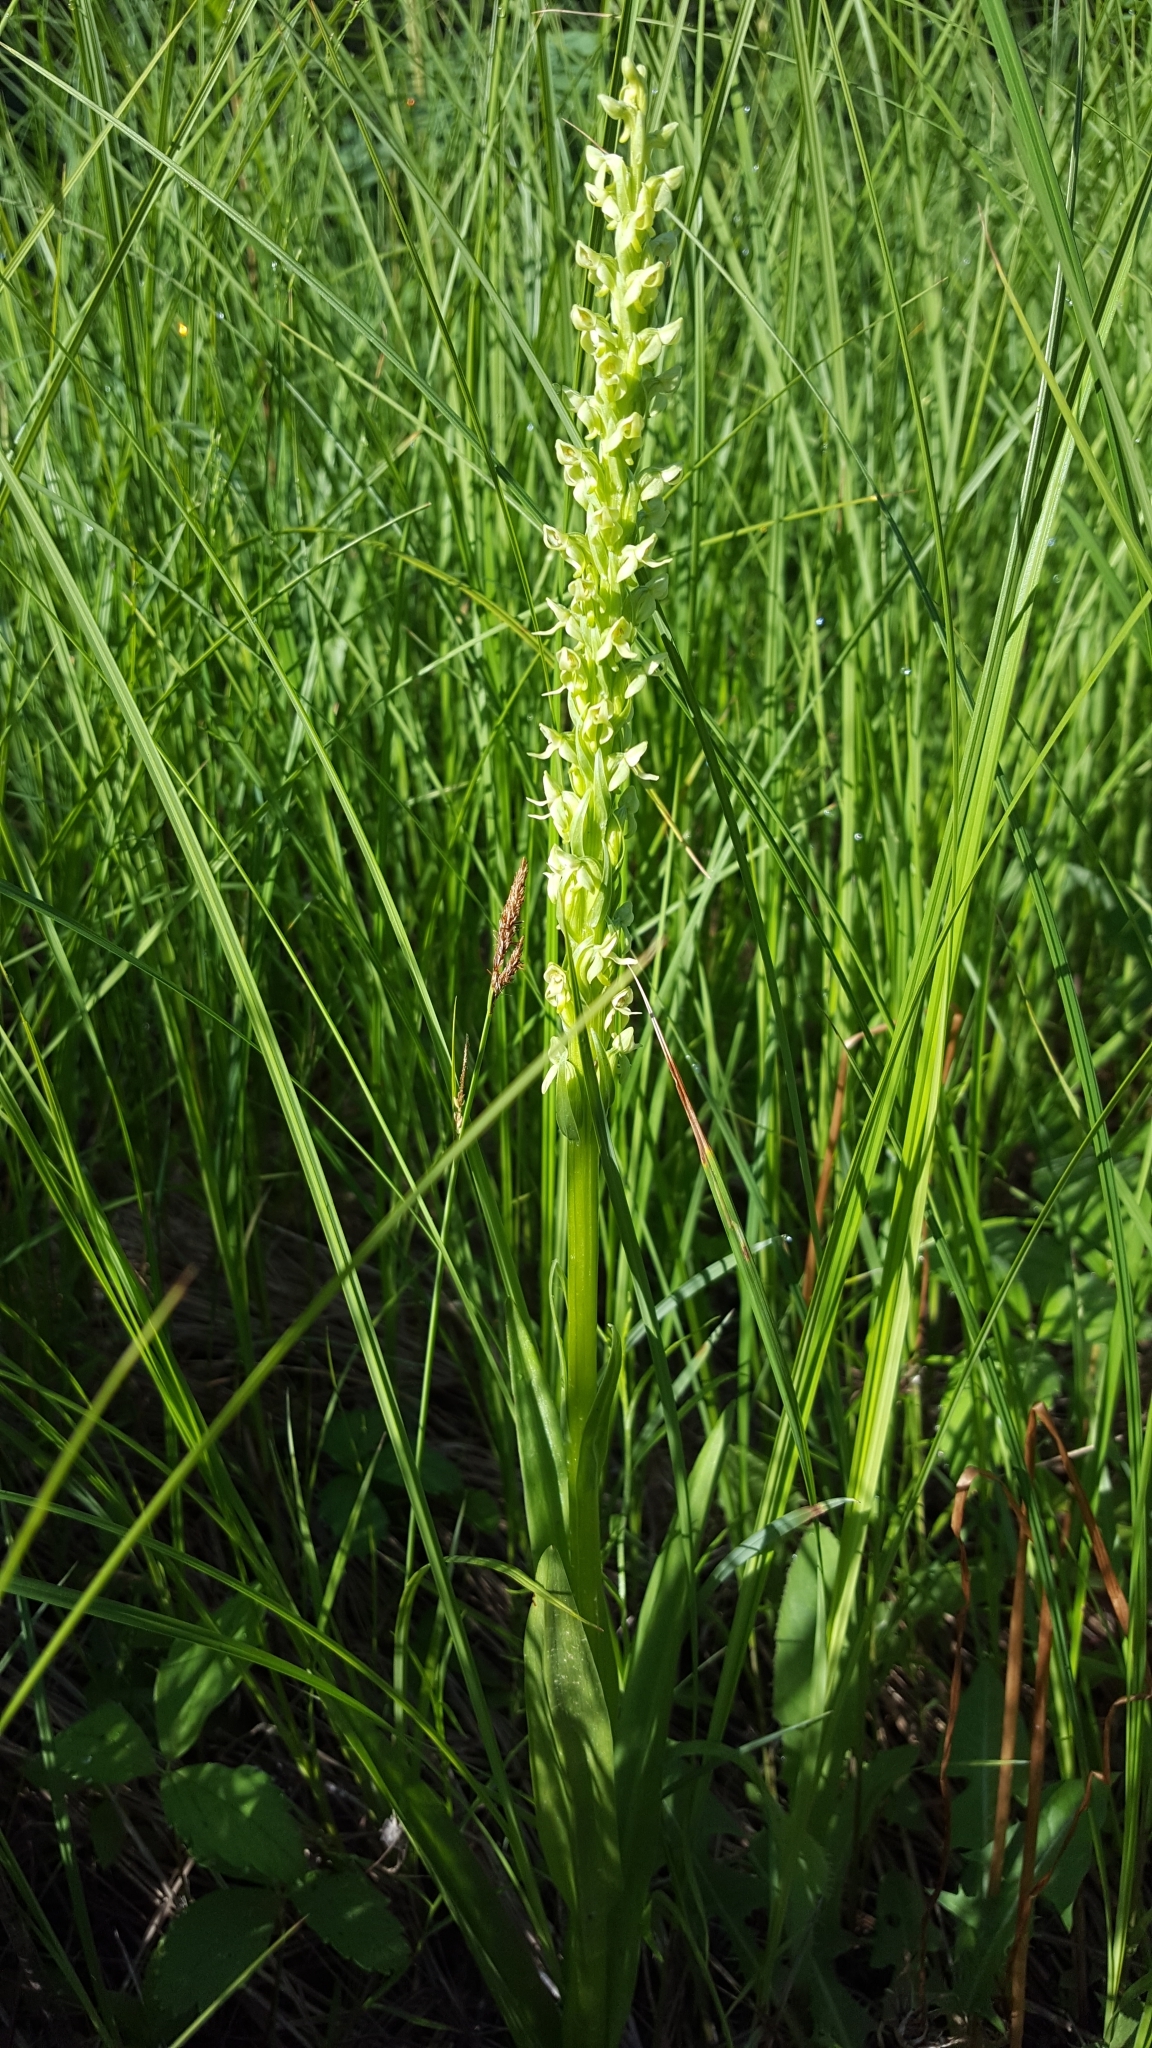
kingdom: Plantae
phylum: Tracheophyta
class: Liliopsida
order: Asparagales
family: Orchidaceae
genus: Platanthera
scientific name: Platanthera huronensis
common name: Fragrant green orchid
